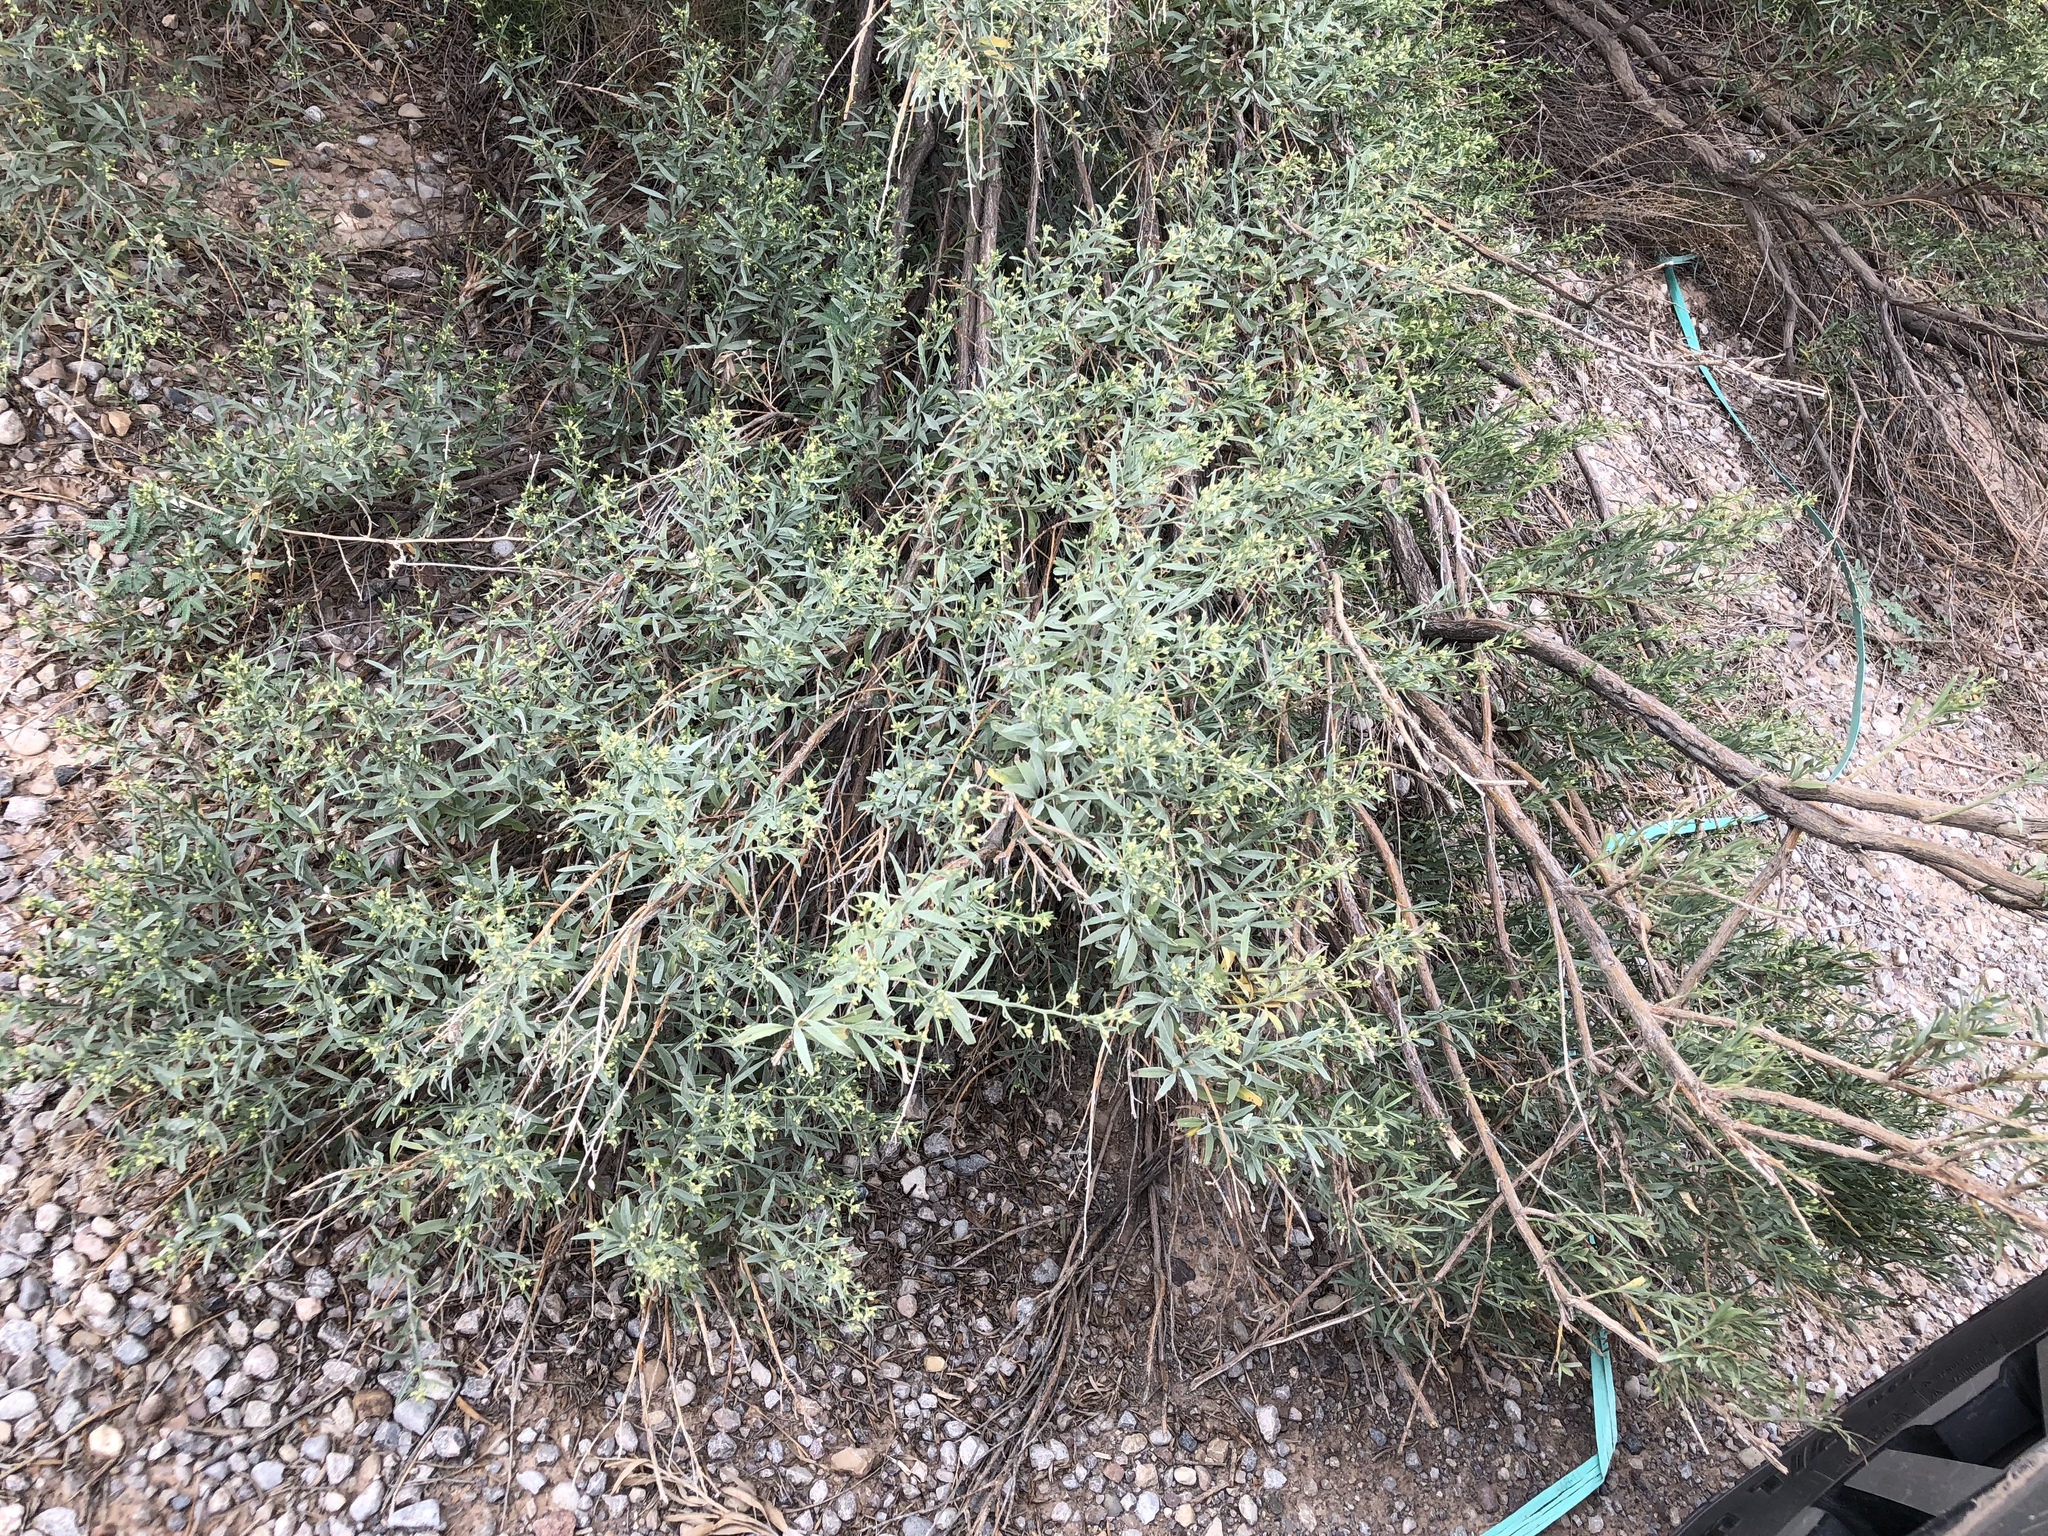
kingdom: Plantae
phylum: Tracheophyta
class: Magnoliopsida
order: Asterales
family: Asteraceae
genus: Baccharis
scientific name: Baccharis salicina
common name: Willow baccharis
